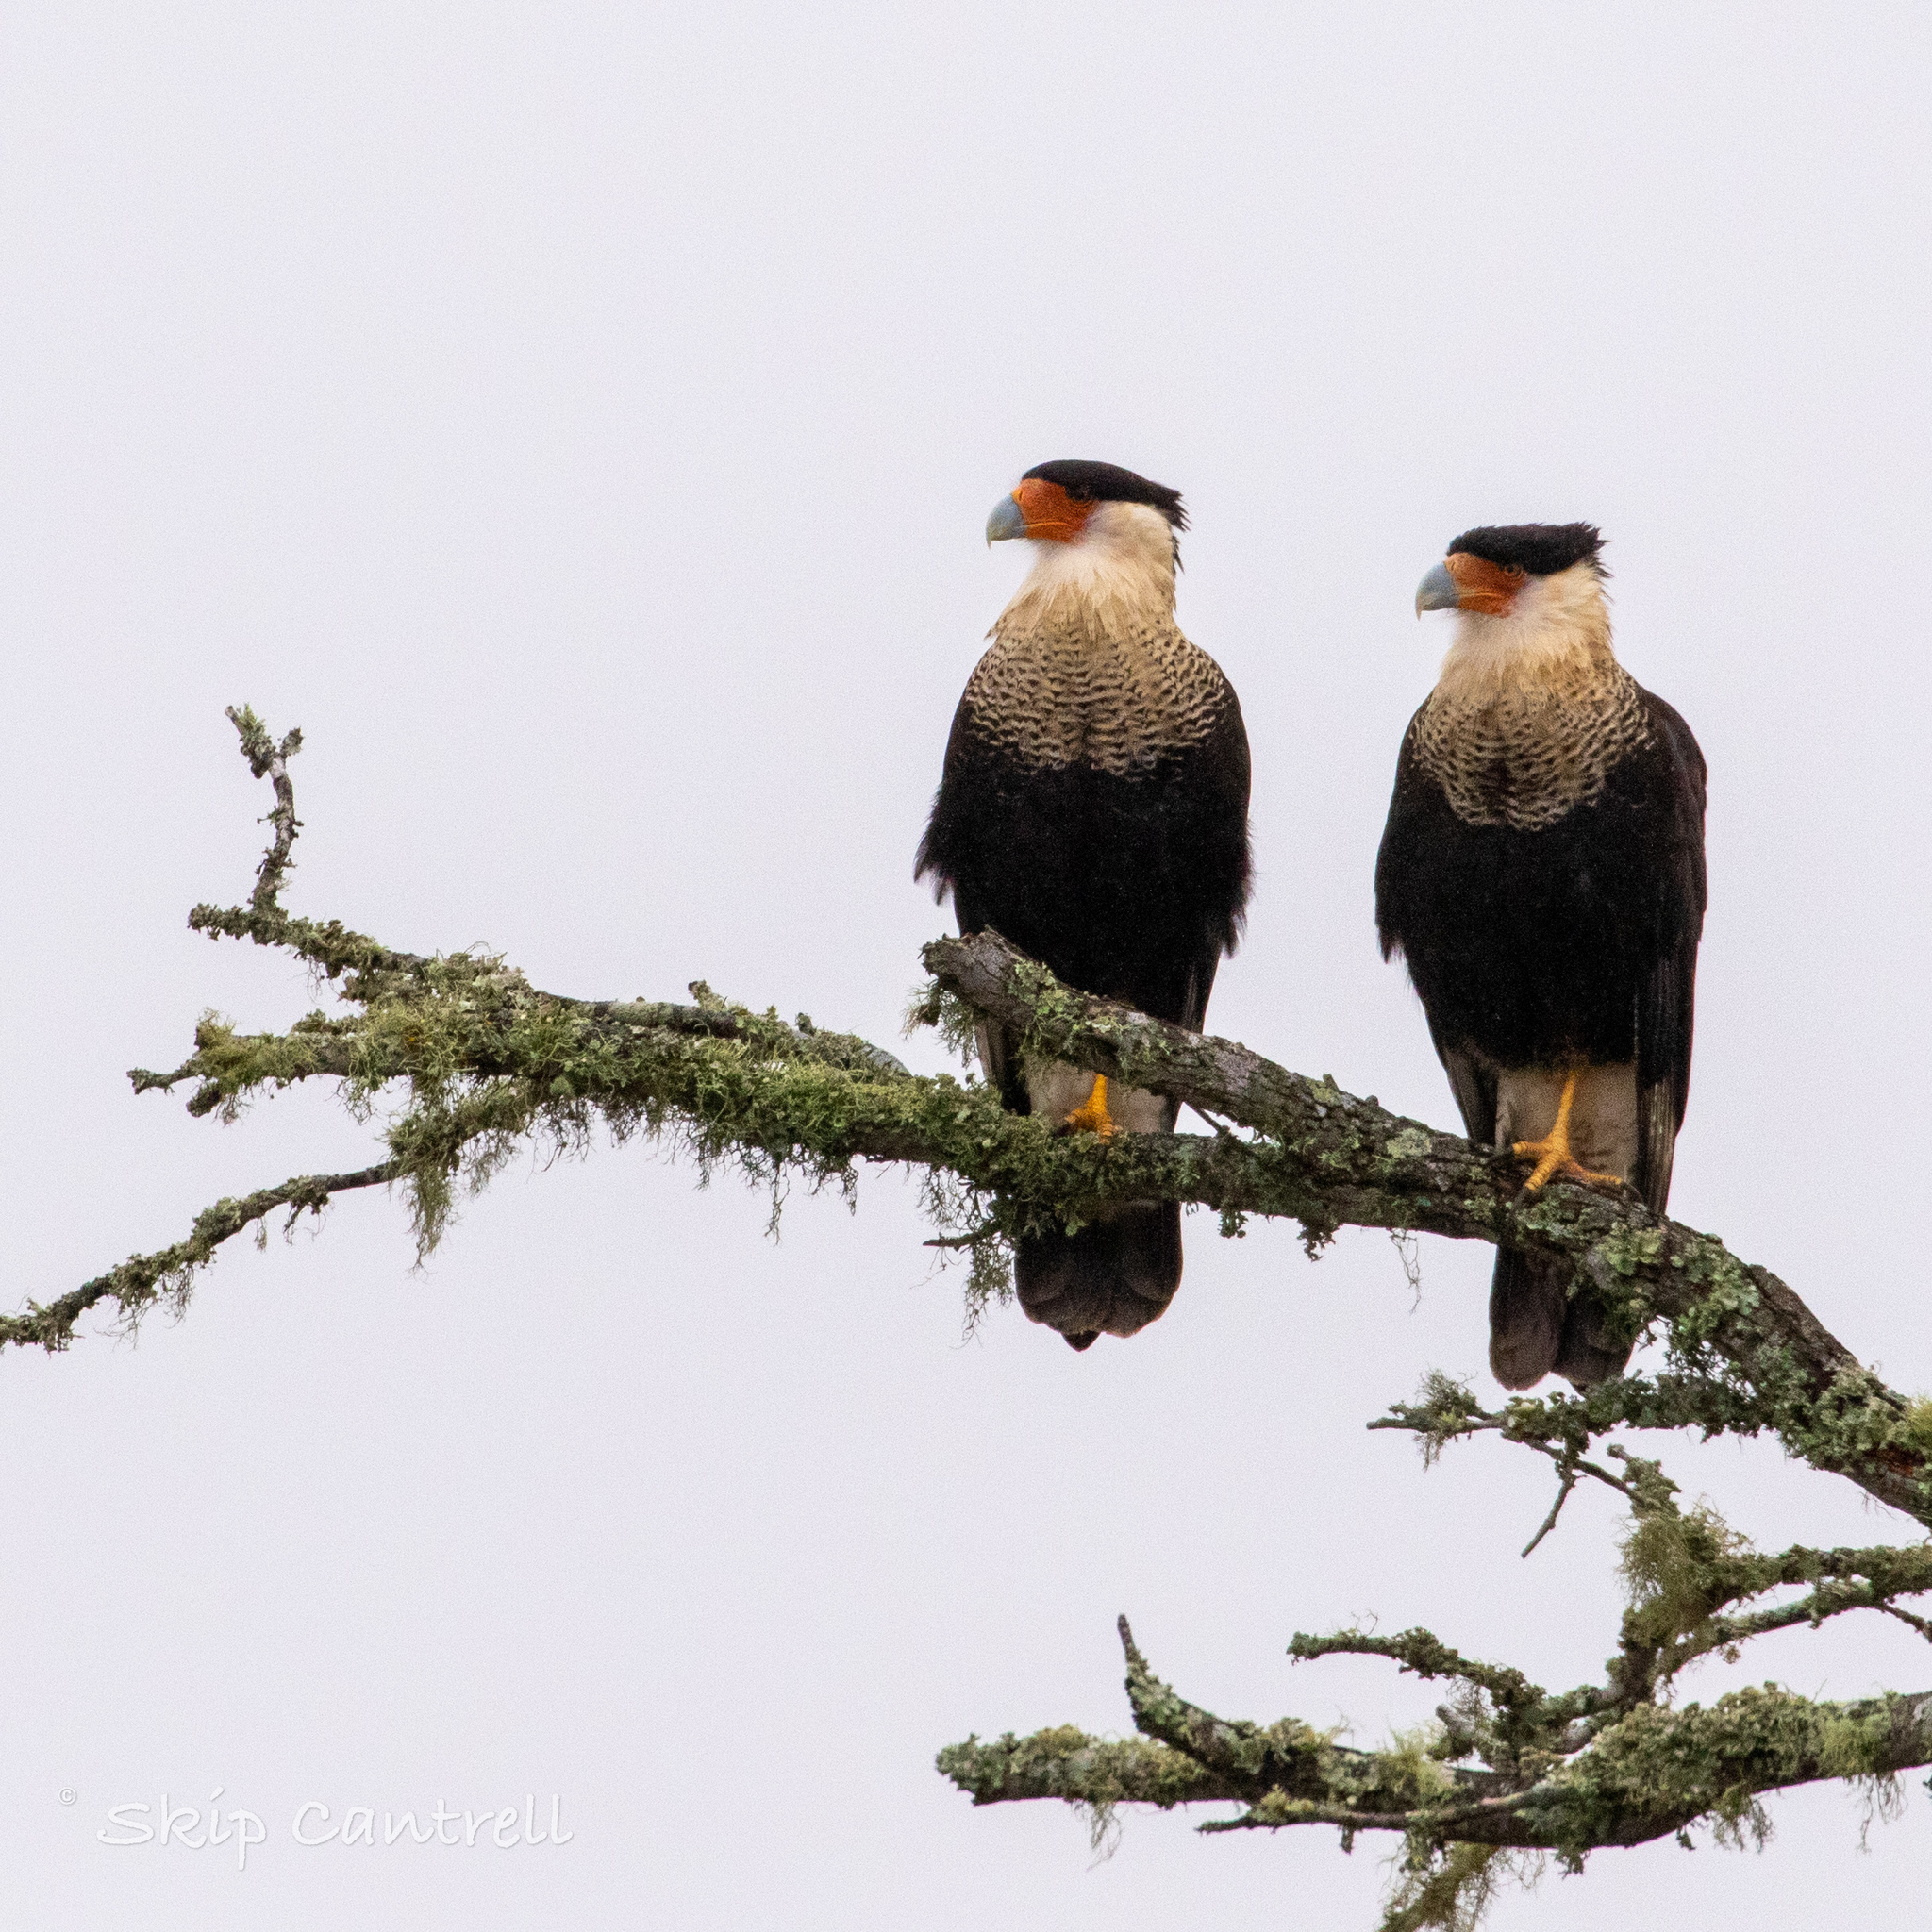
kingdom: Animalia
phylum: Chordata
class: Aves
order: Falconiformes
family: Falconidae
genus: Caracara
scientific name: Caracara plancus
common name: Southern caracara
